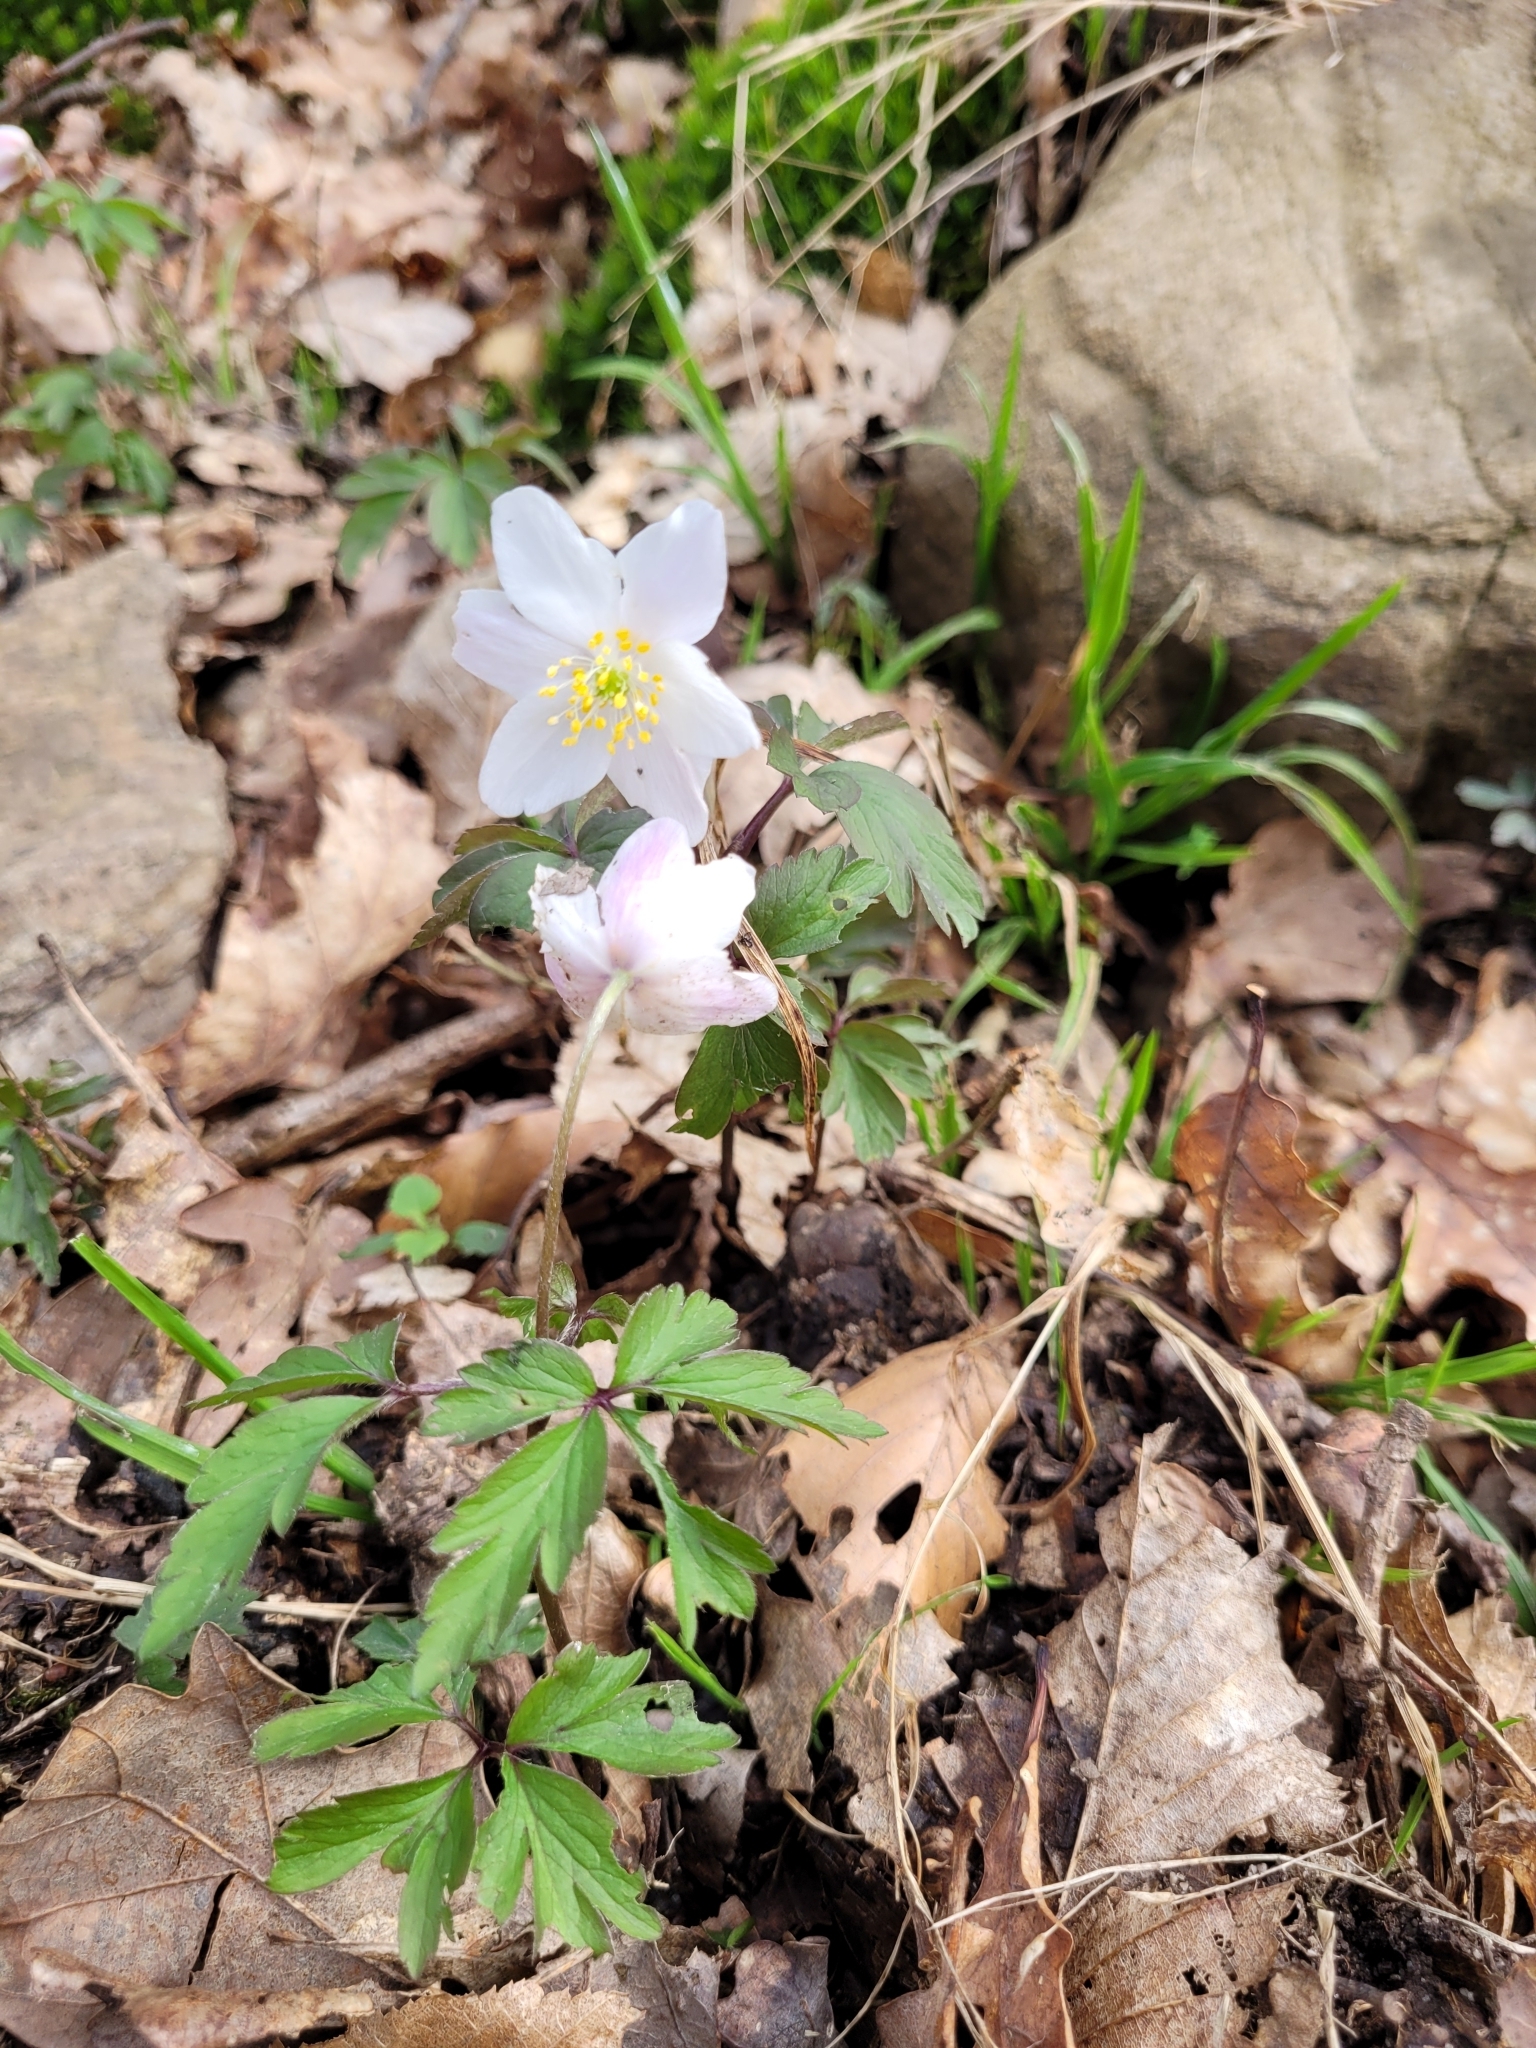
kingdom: Plantae
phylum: Tracheophyta
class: Magnoliopsida
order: Ranunculales
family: Ranunculaceae
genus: Anemone
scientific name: Anemone nemorosa
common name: Wood anemone
